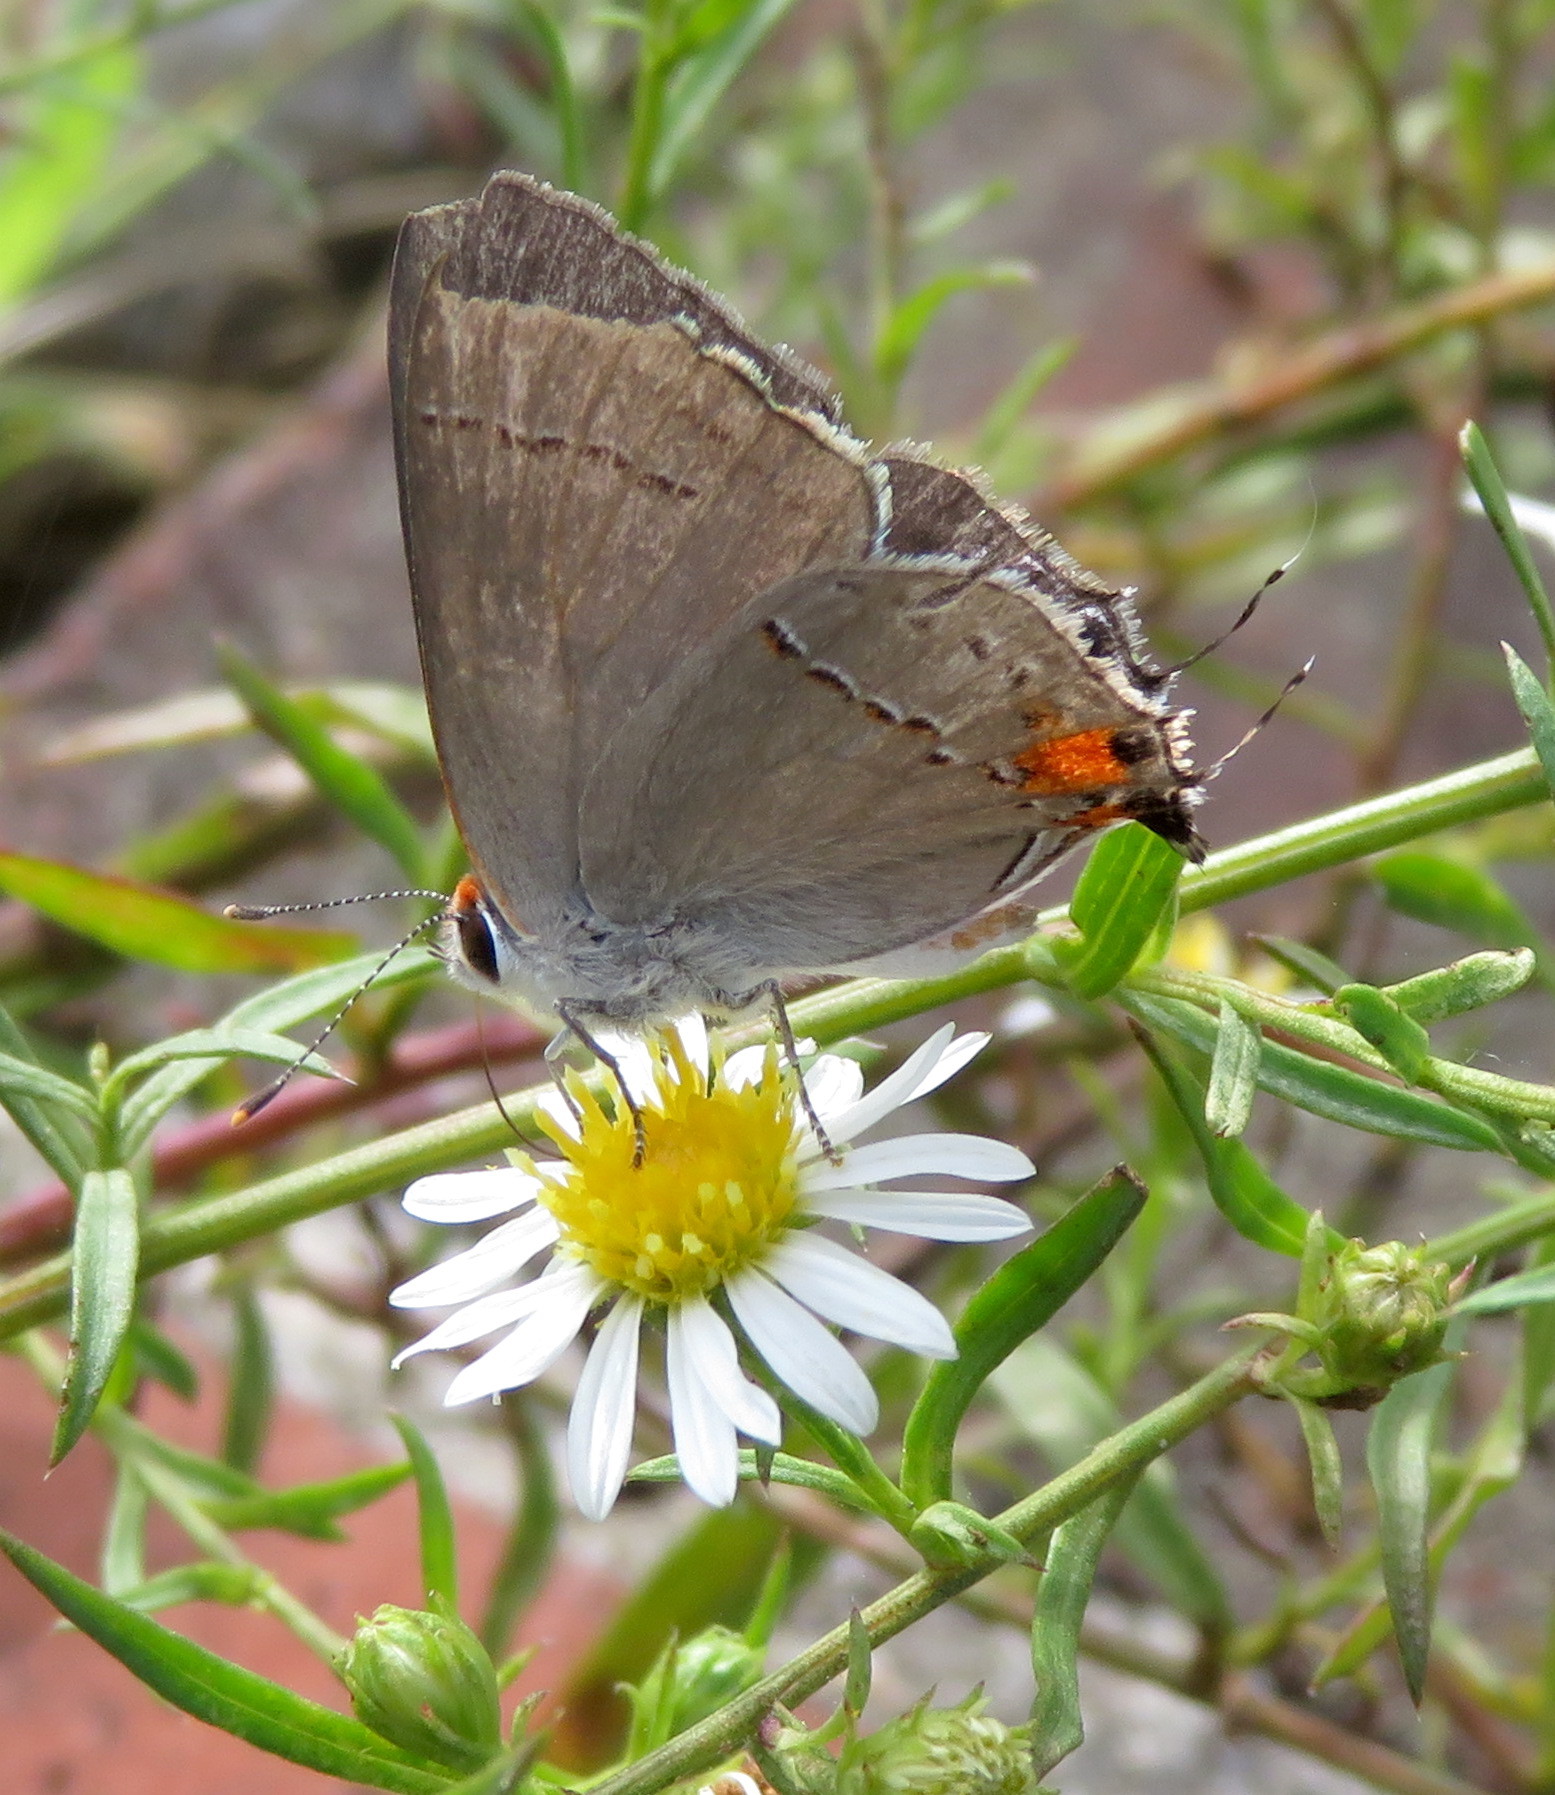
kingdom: Animalia
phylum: Arthropoda
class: Insecta
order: Lepidoptera
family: Lycaenidae
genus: Strymon
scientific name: Strymon melinus
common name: Gray hairstreak
